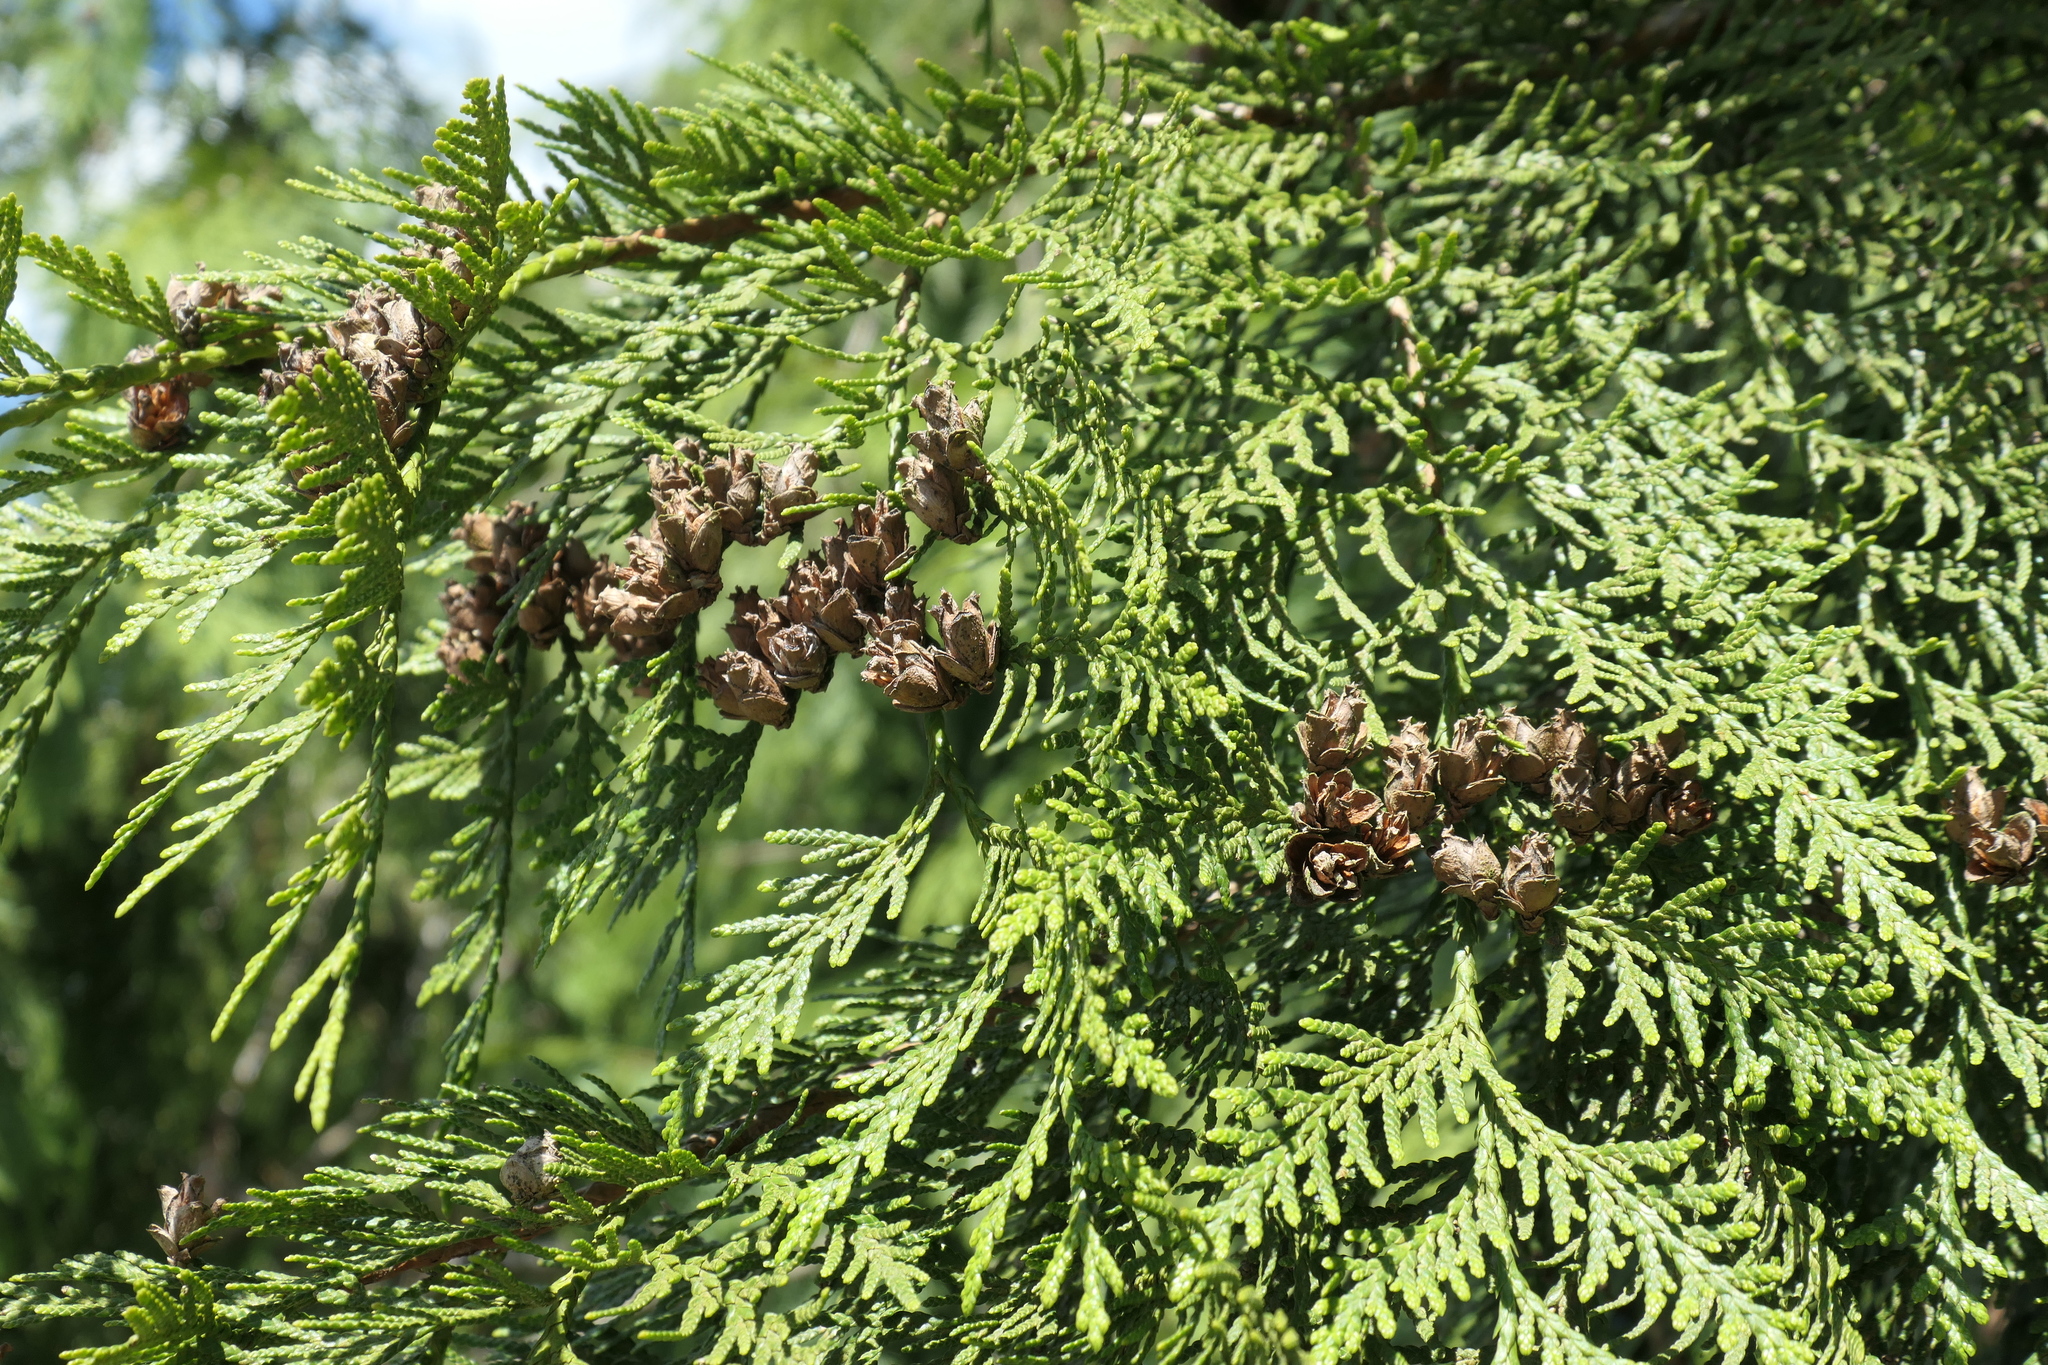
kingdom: Plantae
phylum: Tracheophyta
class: Pinopsida
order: Pinales
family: Cupressaceae
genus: Thuja
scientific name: Thuja plicata
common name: Western red-cedar
